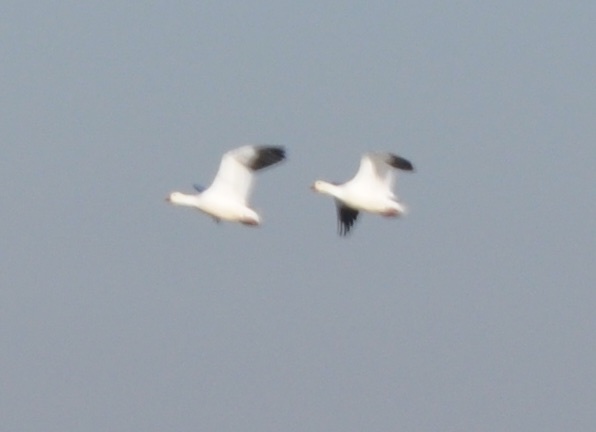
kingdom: Animalia
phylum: Chordata
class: Aves
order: Anseriformes
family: Anatidae
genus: Anser
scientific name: Anser caerulescens
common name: Snow goose
